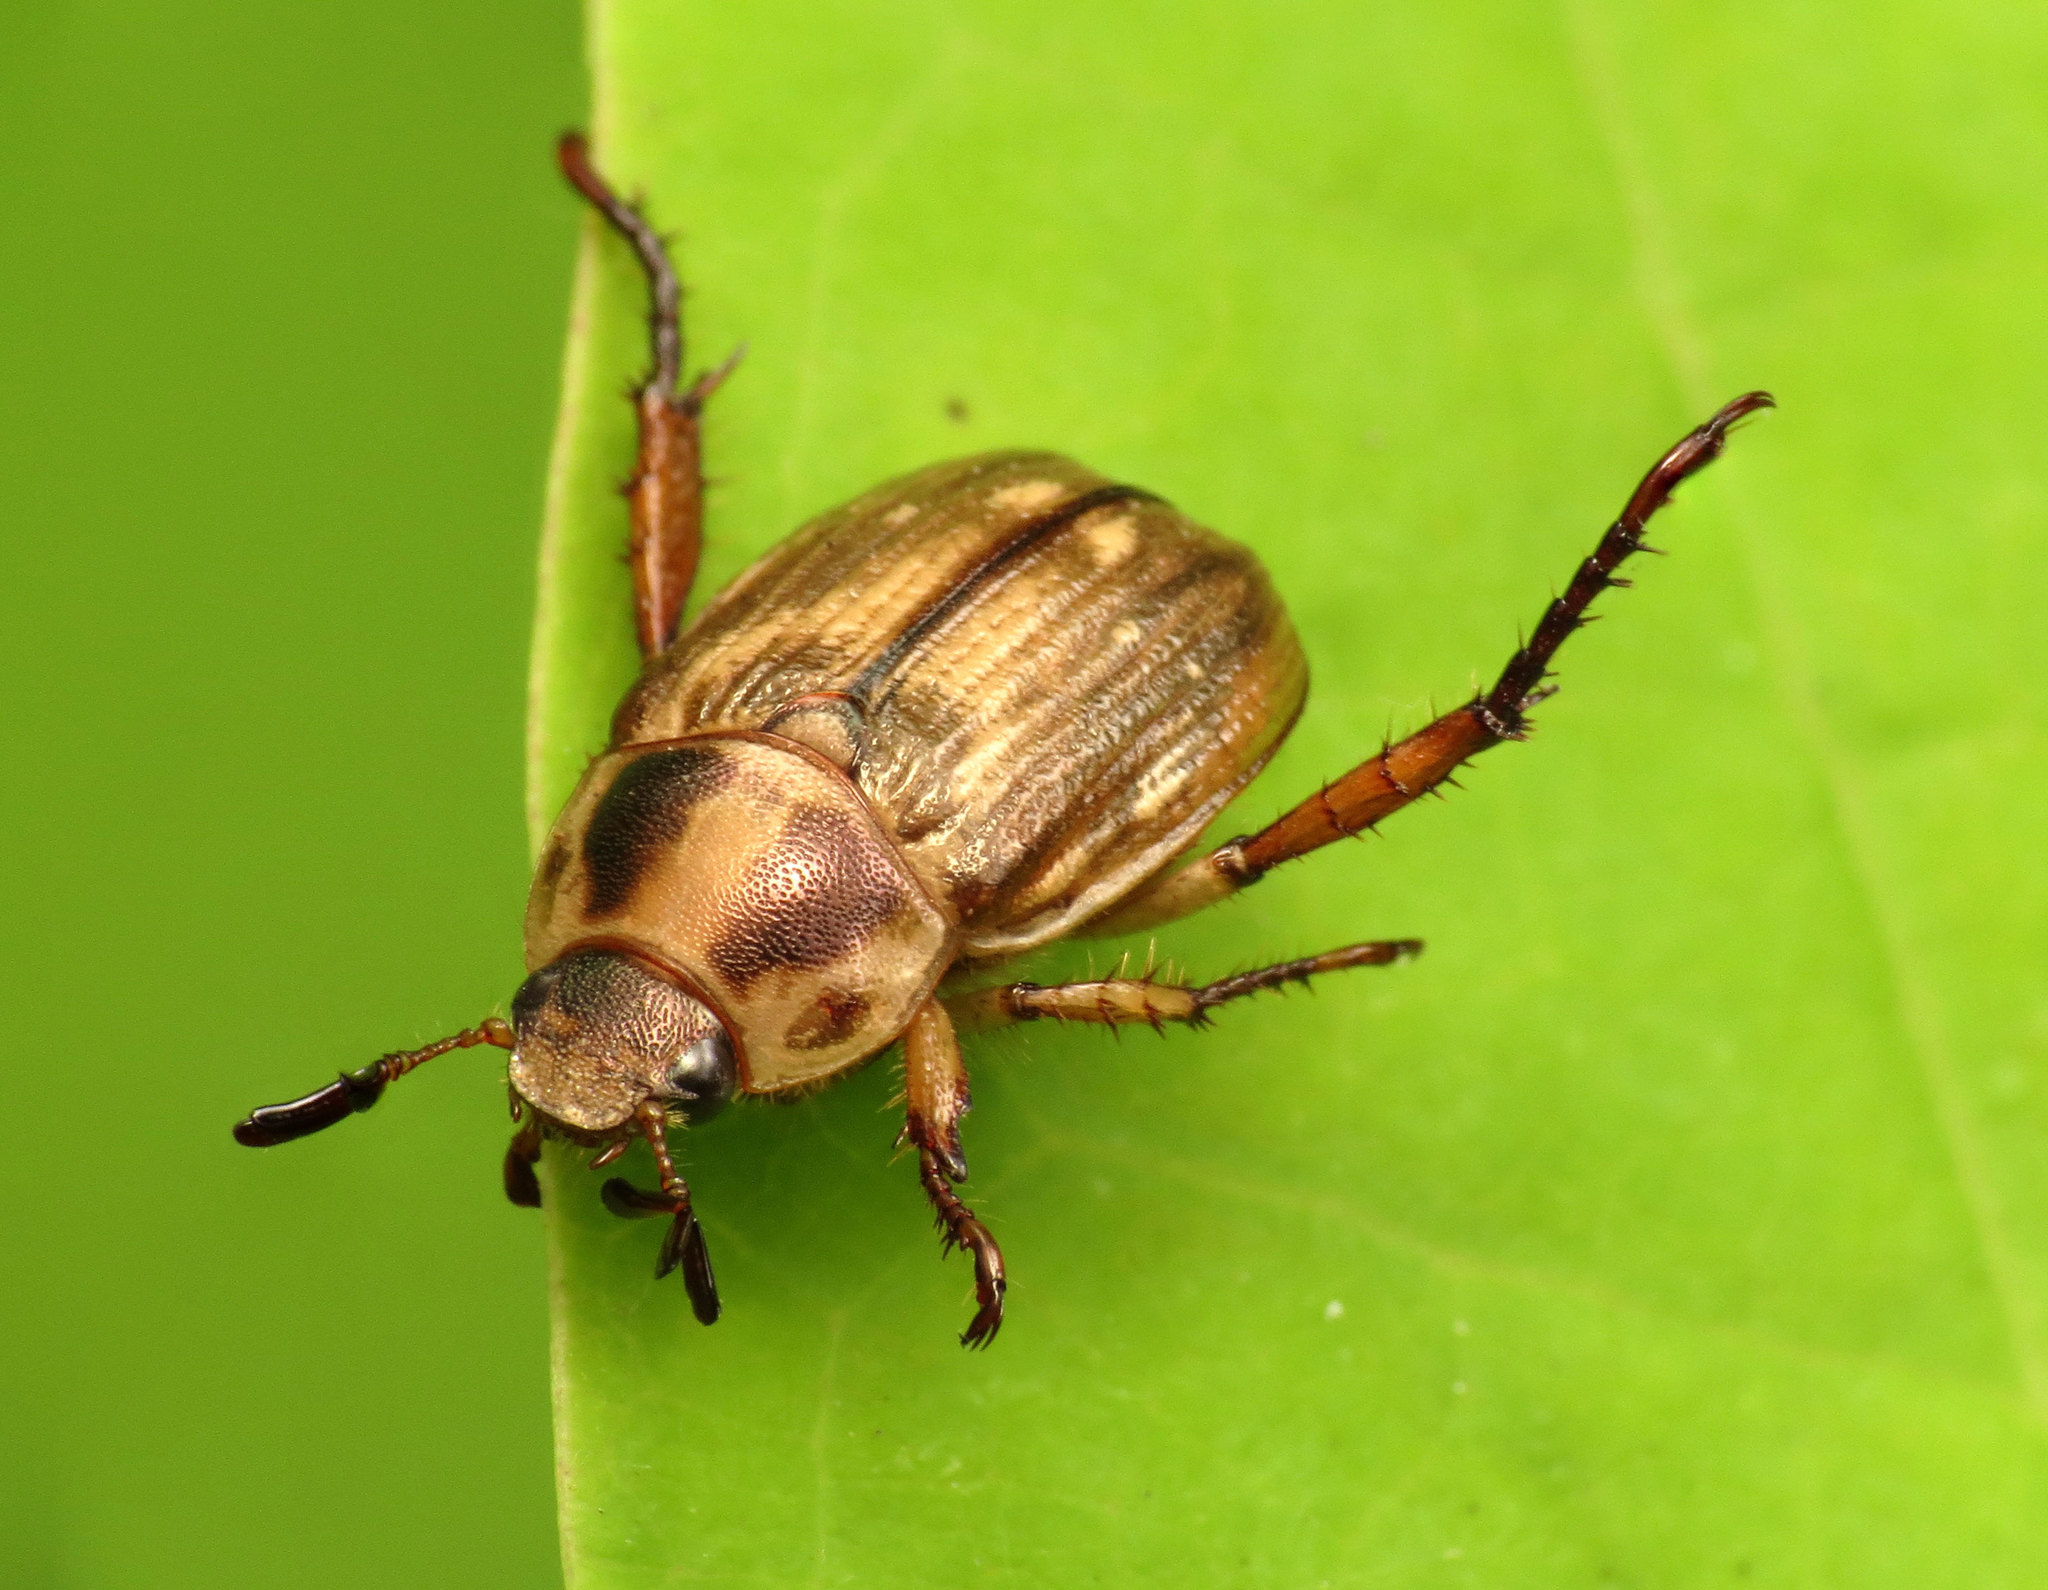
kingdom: Animalia
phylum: Arthropoda
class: Insecta
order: Coleoptera
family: Scarabaeidae
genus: Exomala
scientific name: Exomala orientalis
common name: Oriental beetle
